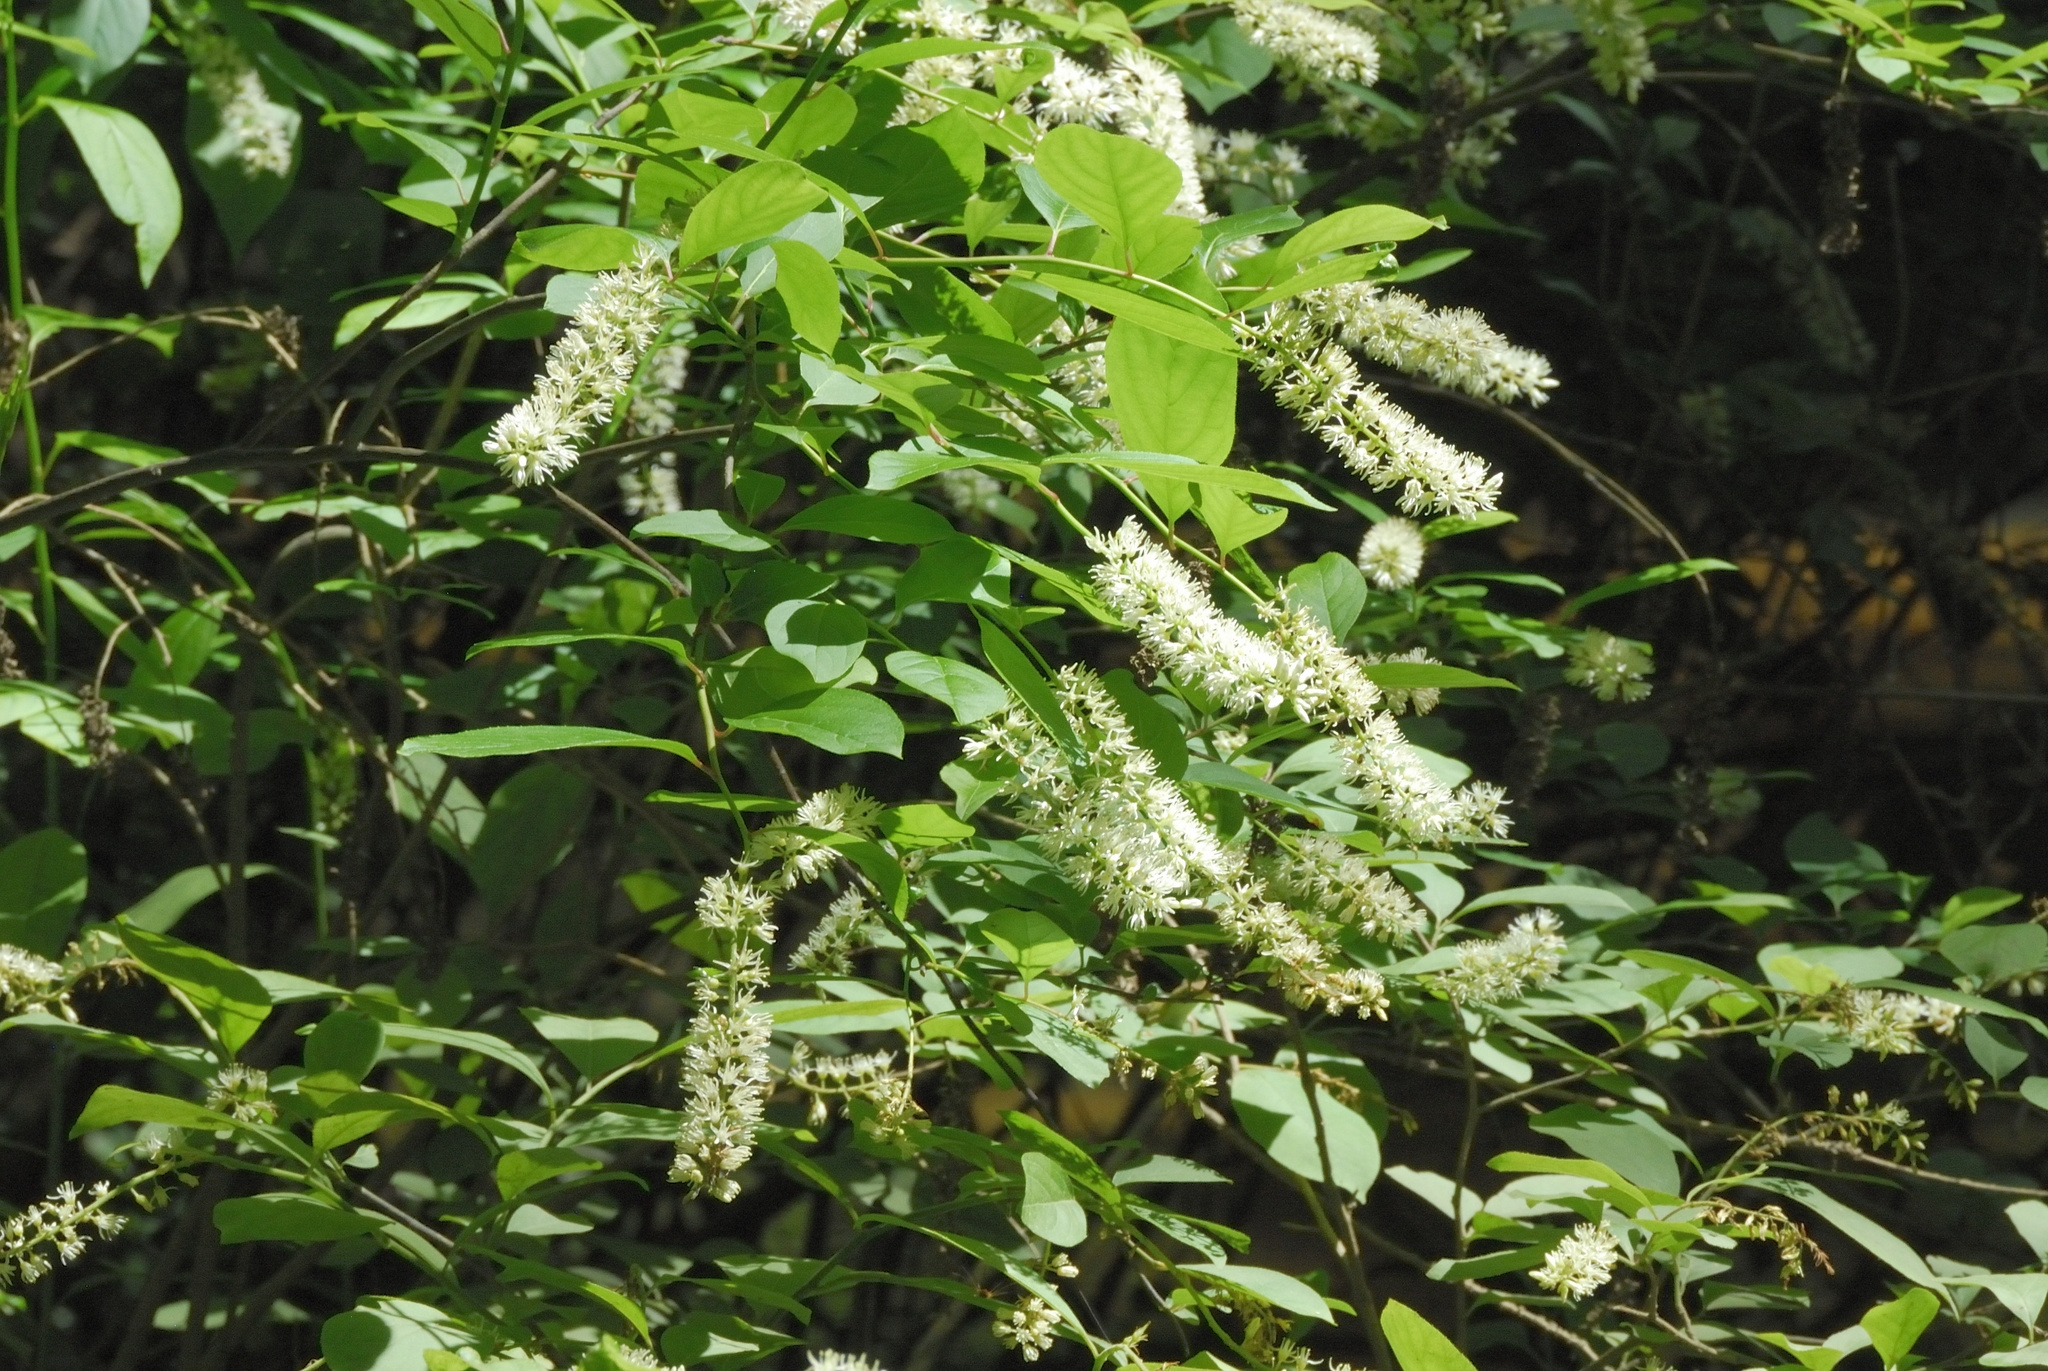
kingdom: Plantae
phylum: Tracheophyta
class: Magnoliopsida
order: Saxifragales
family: Iteaceae
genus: Itea
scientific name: Itea virginica
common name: Sweetspire
